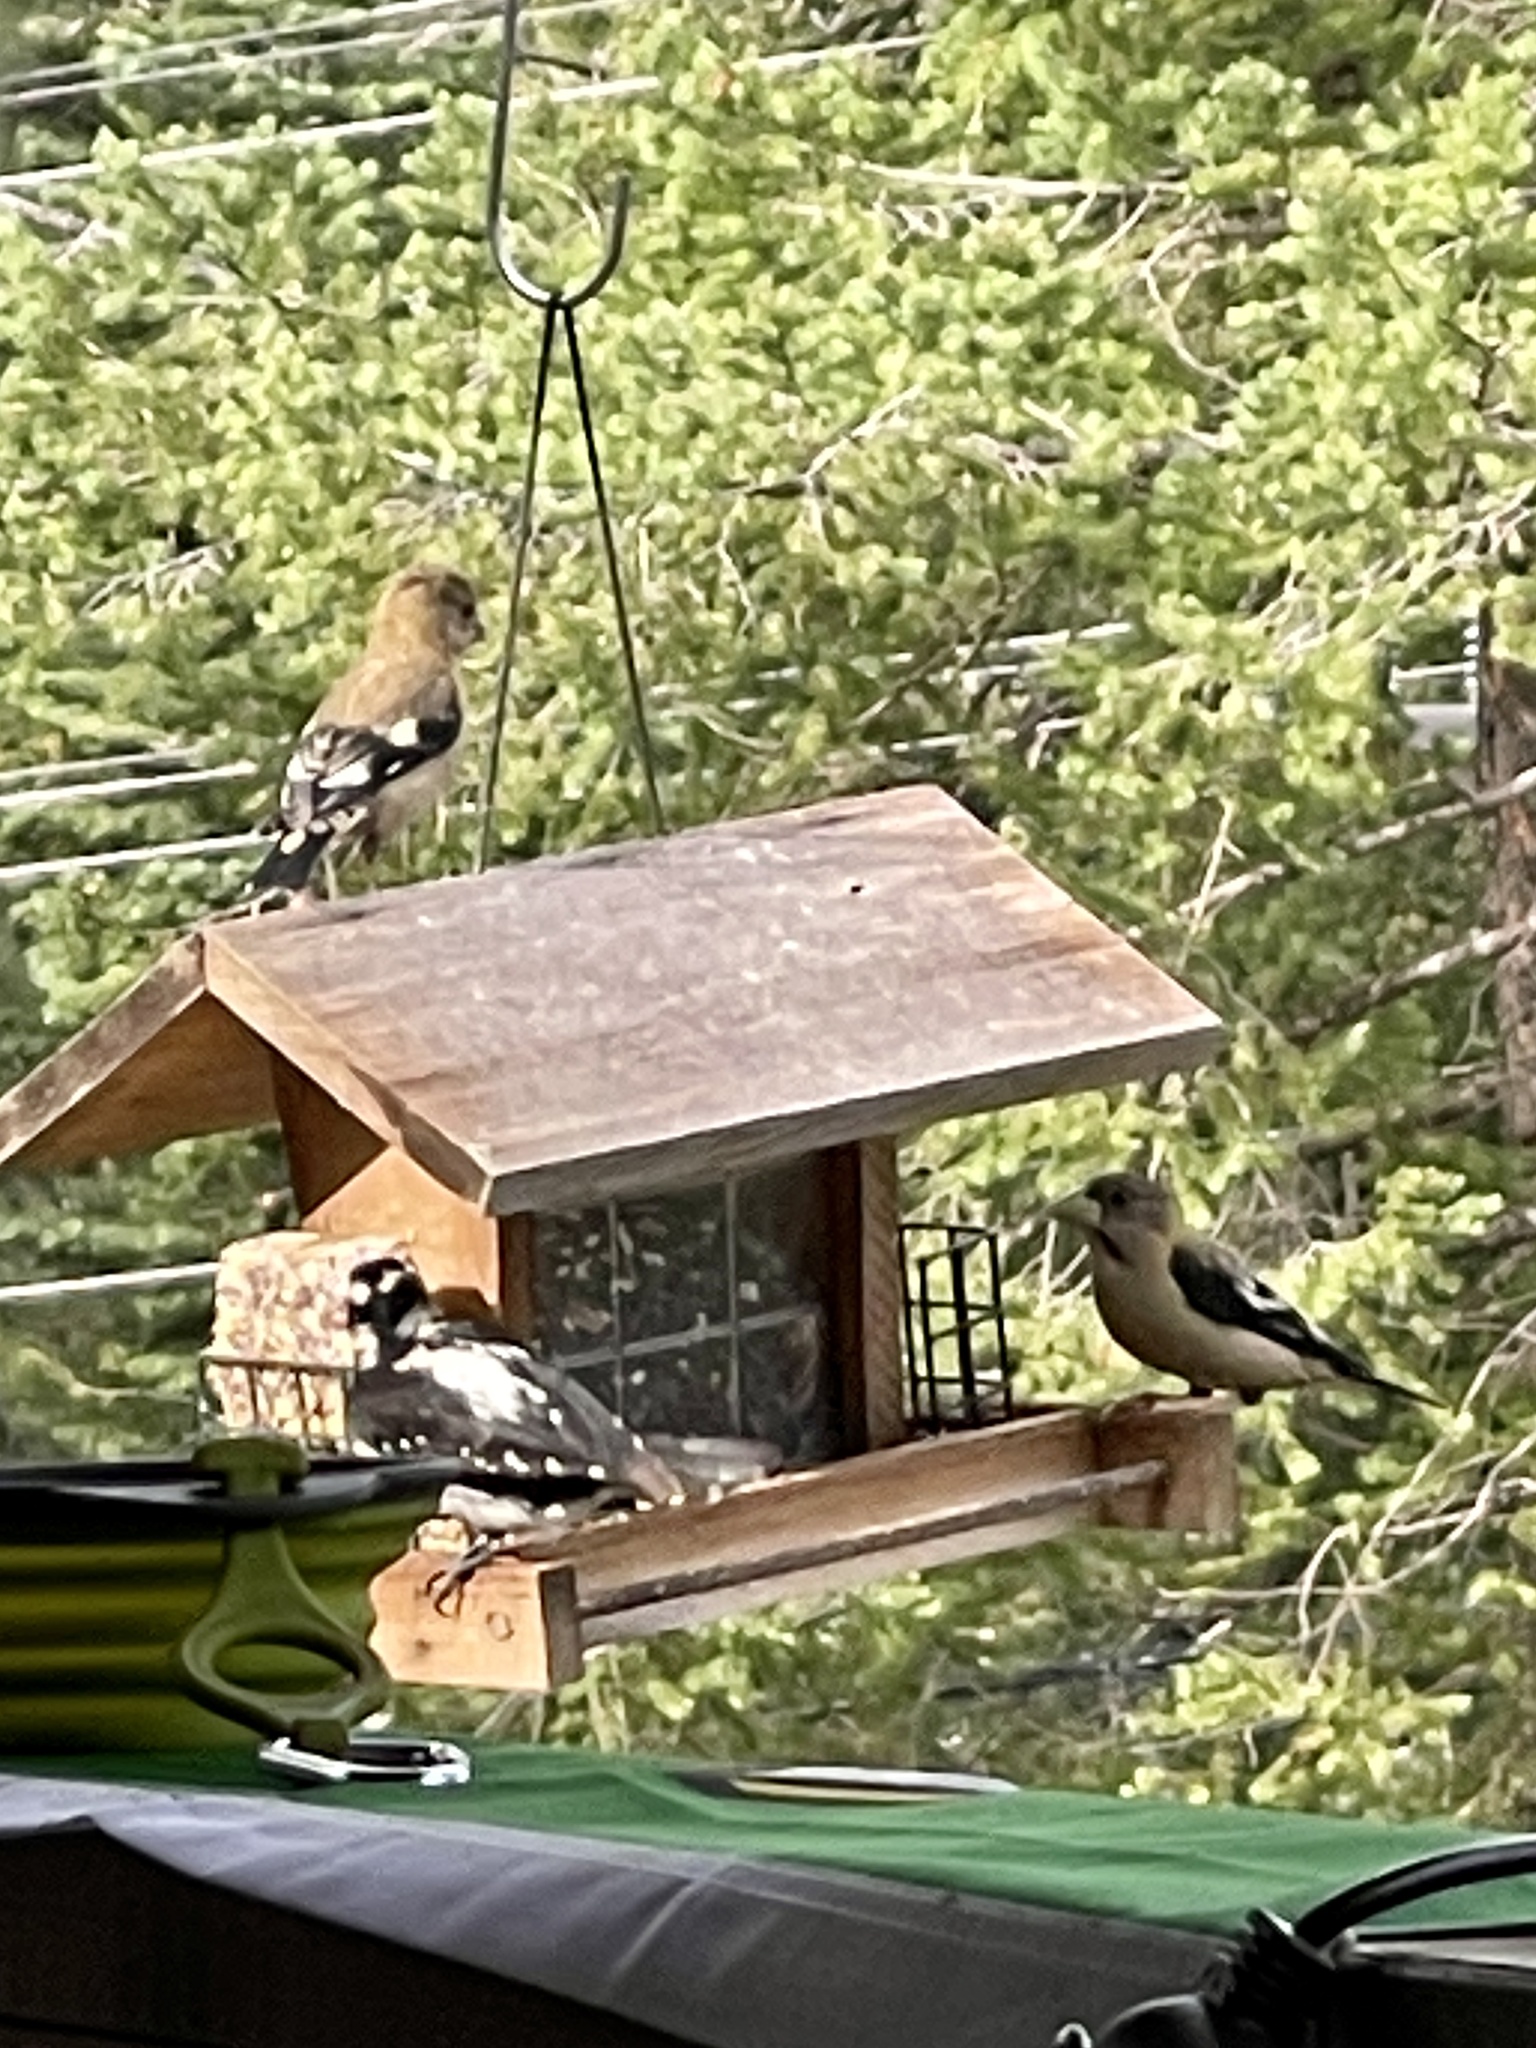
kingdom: Animalia
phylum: Chordata
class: Aves
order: Passeriformes
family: Fringillidae
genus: Hesperiphona
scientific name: Hesperiphona vespertina
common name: Evening grosbeak
